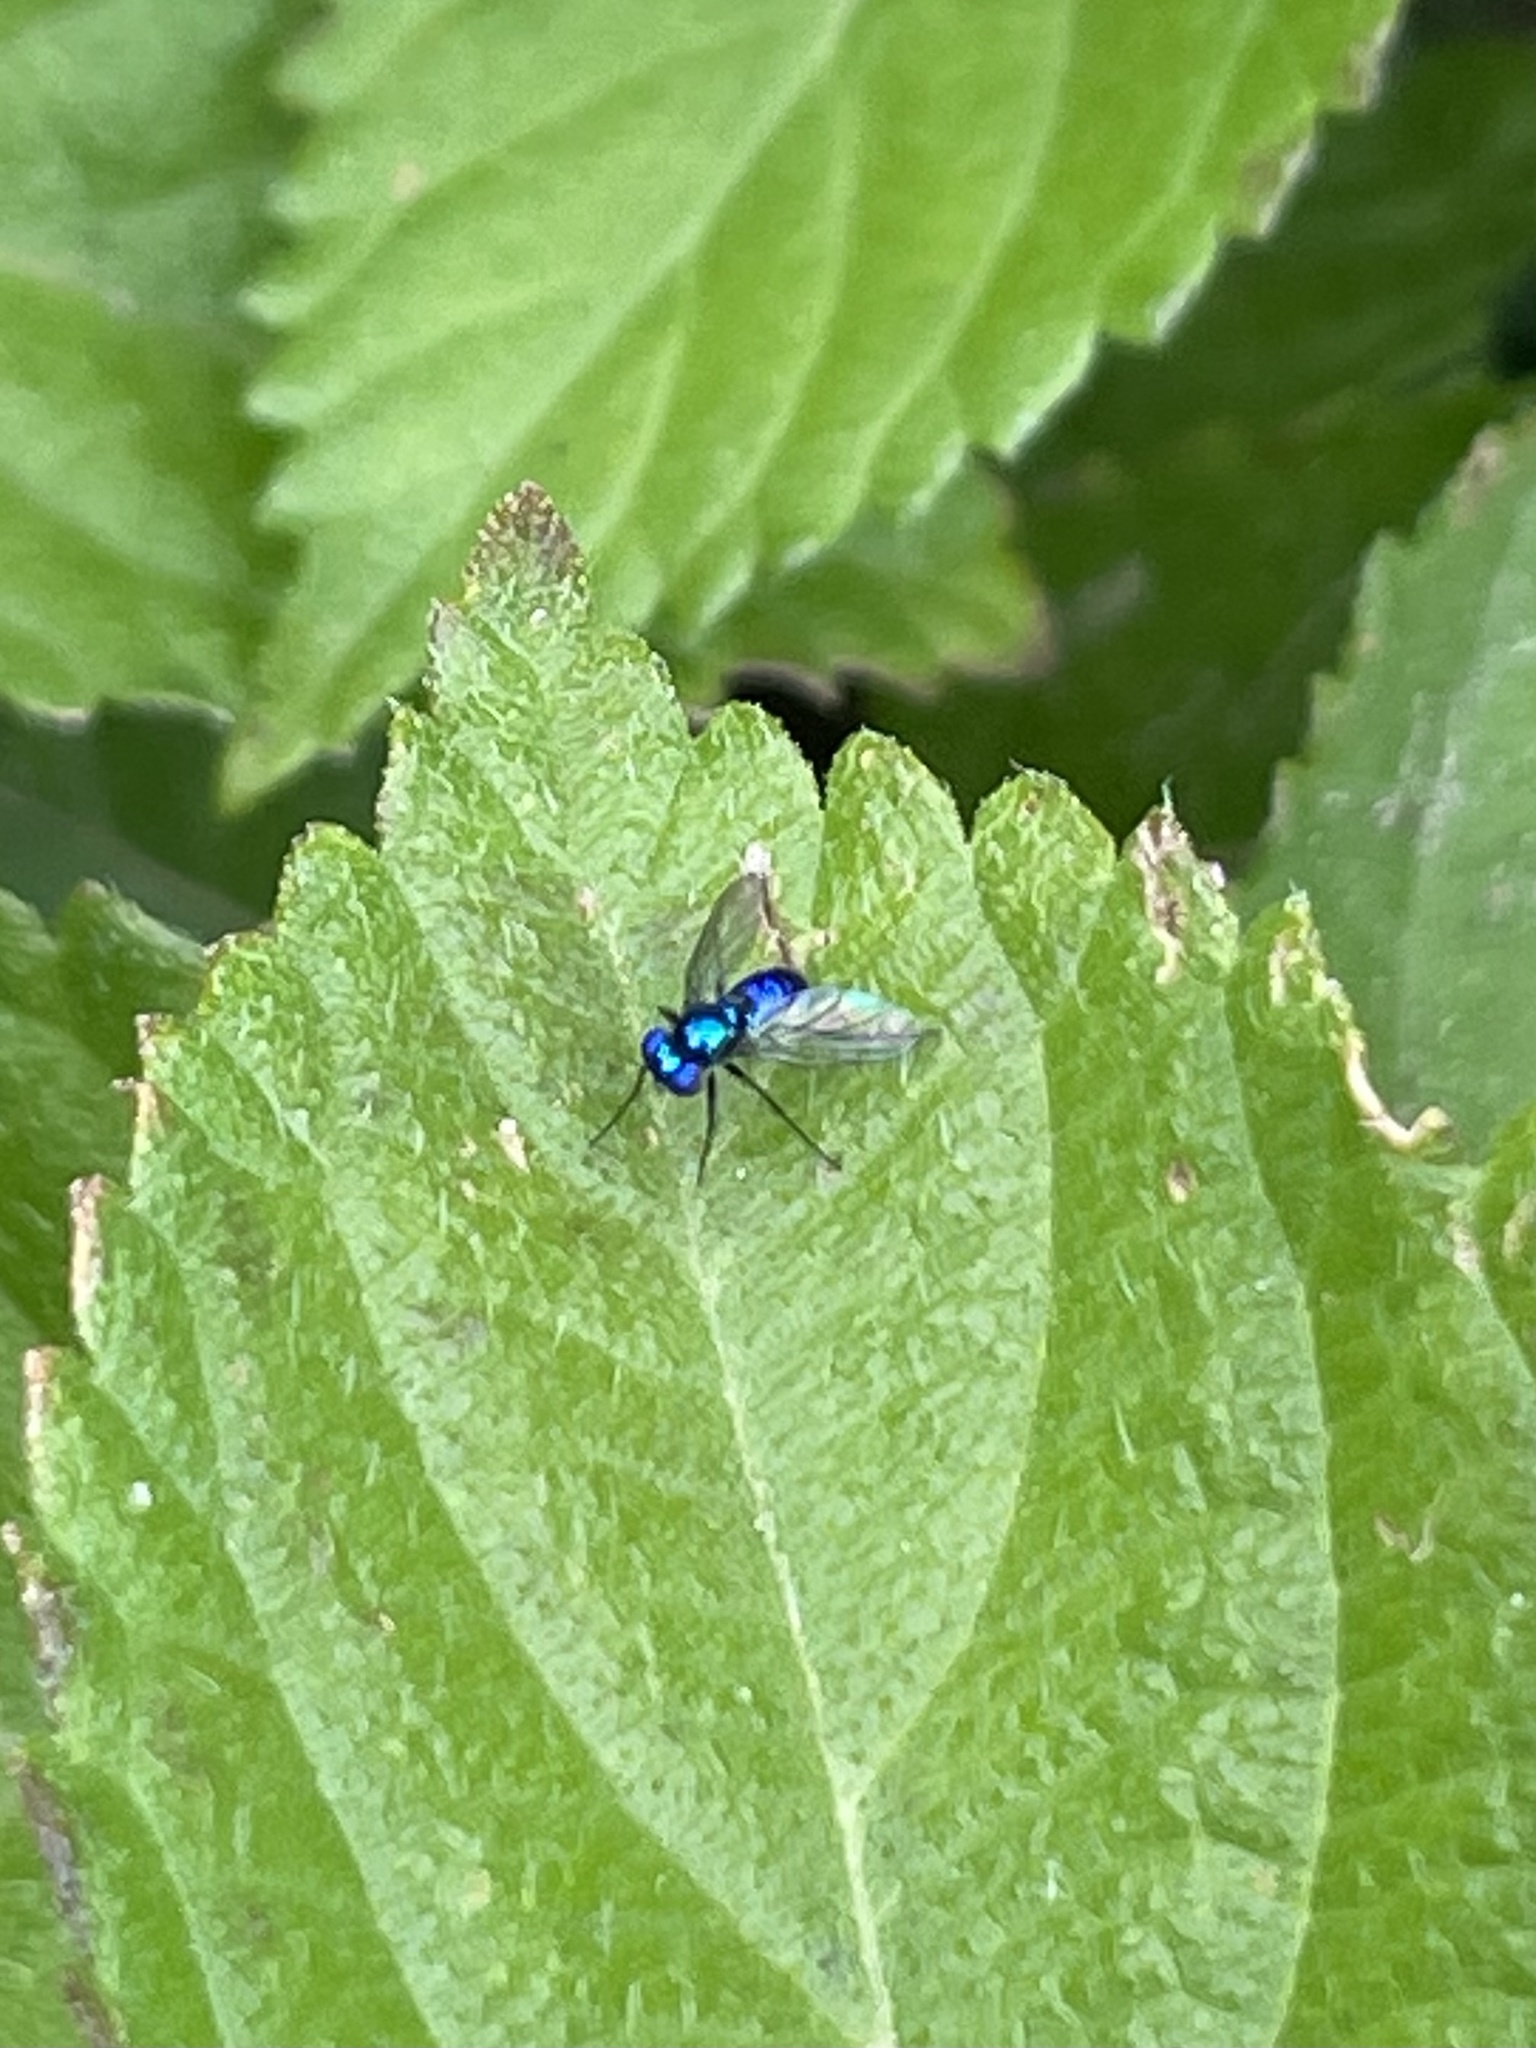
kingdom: Animalia
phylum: Arthropoda
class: Insecta
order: Diptera
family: Dolichopodidae
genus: Condylostylus
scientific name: Condylostylus mundus
